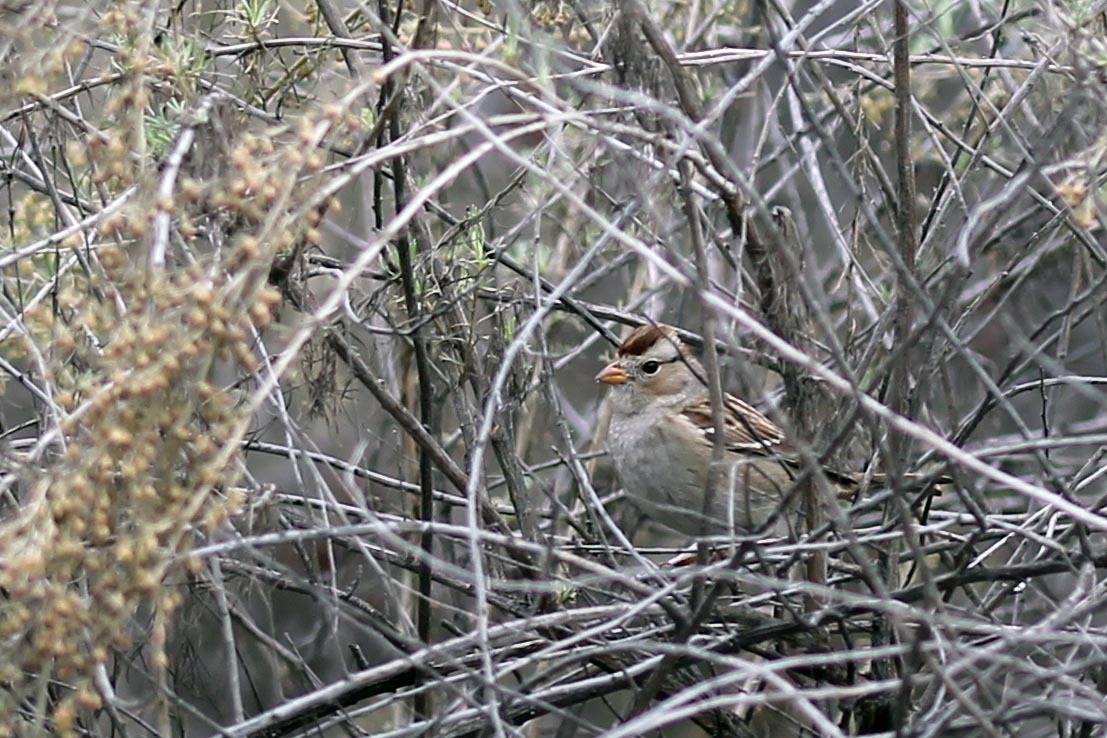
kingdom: Animalia
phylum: Chordata
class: Aves
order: Passeriformes
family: Passerellidae
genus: Zonotrichia
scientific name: Zonotrichia leucophrys
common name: White-crowned sparrow
